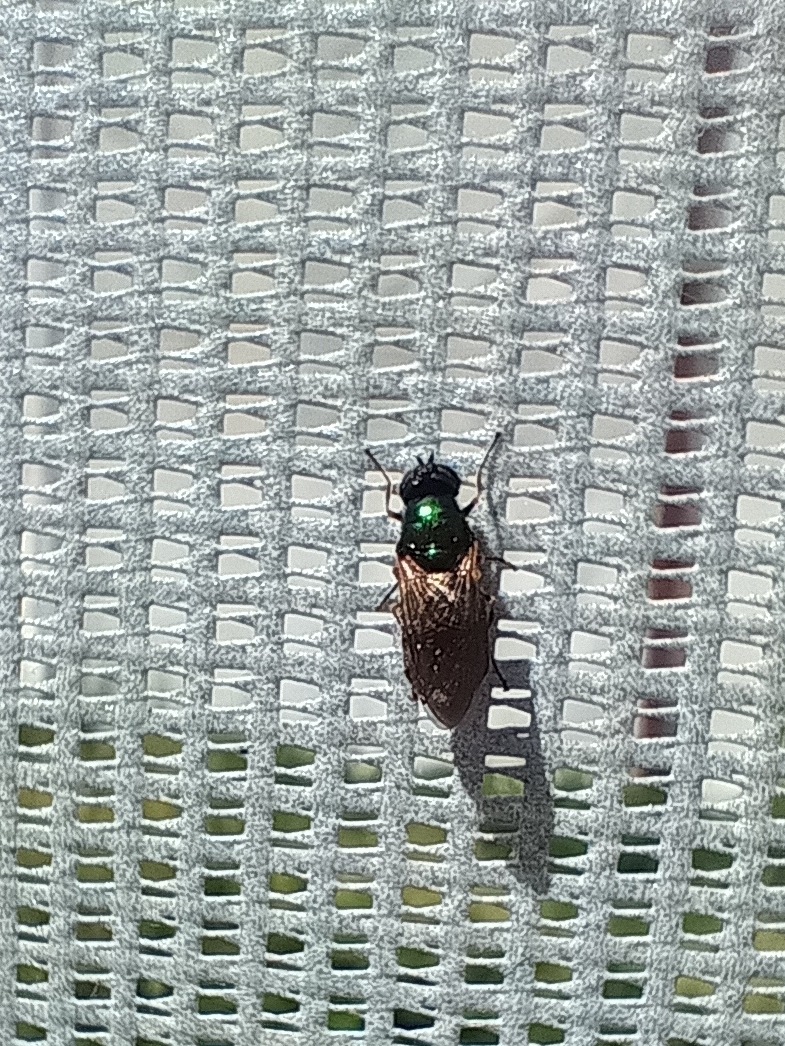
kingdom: Animalia
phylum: Arthropoda
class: Insecta
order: Diptera
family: Stratiomyidae
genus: Chloromyia
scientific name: Chloromyia formosa
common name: Soldier fly
